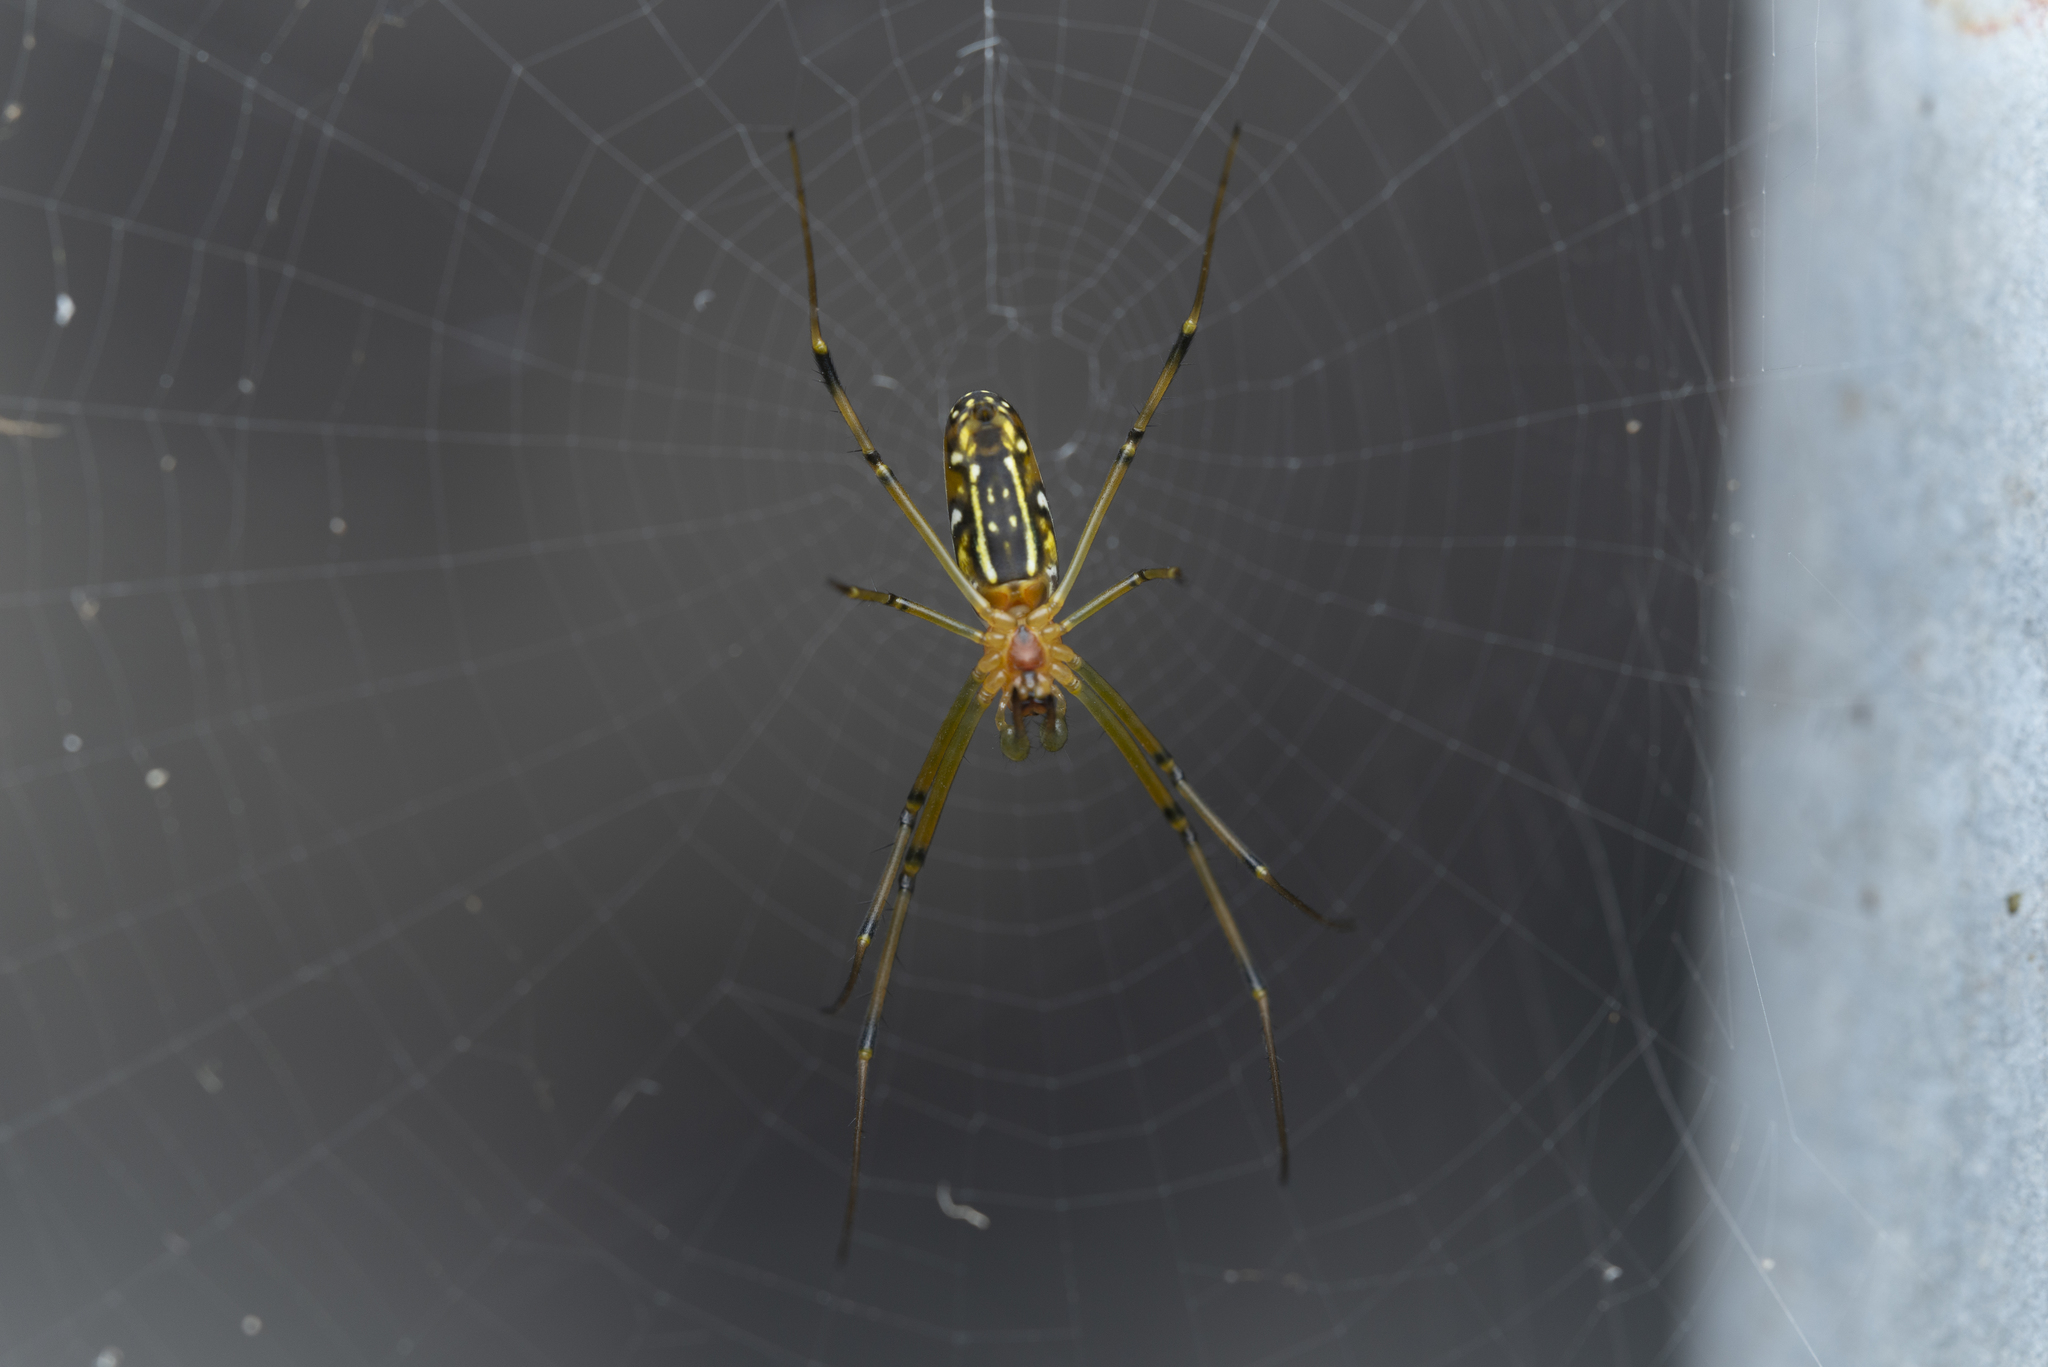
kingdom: Animalia
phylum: Arthropoda
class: Arachnida
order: Araneae
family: Araneidae
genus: Nephila
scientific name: Nephila pilipes
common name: Giant golden orb weaver
